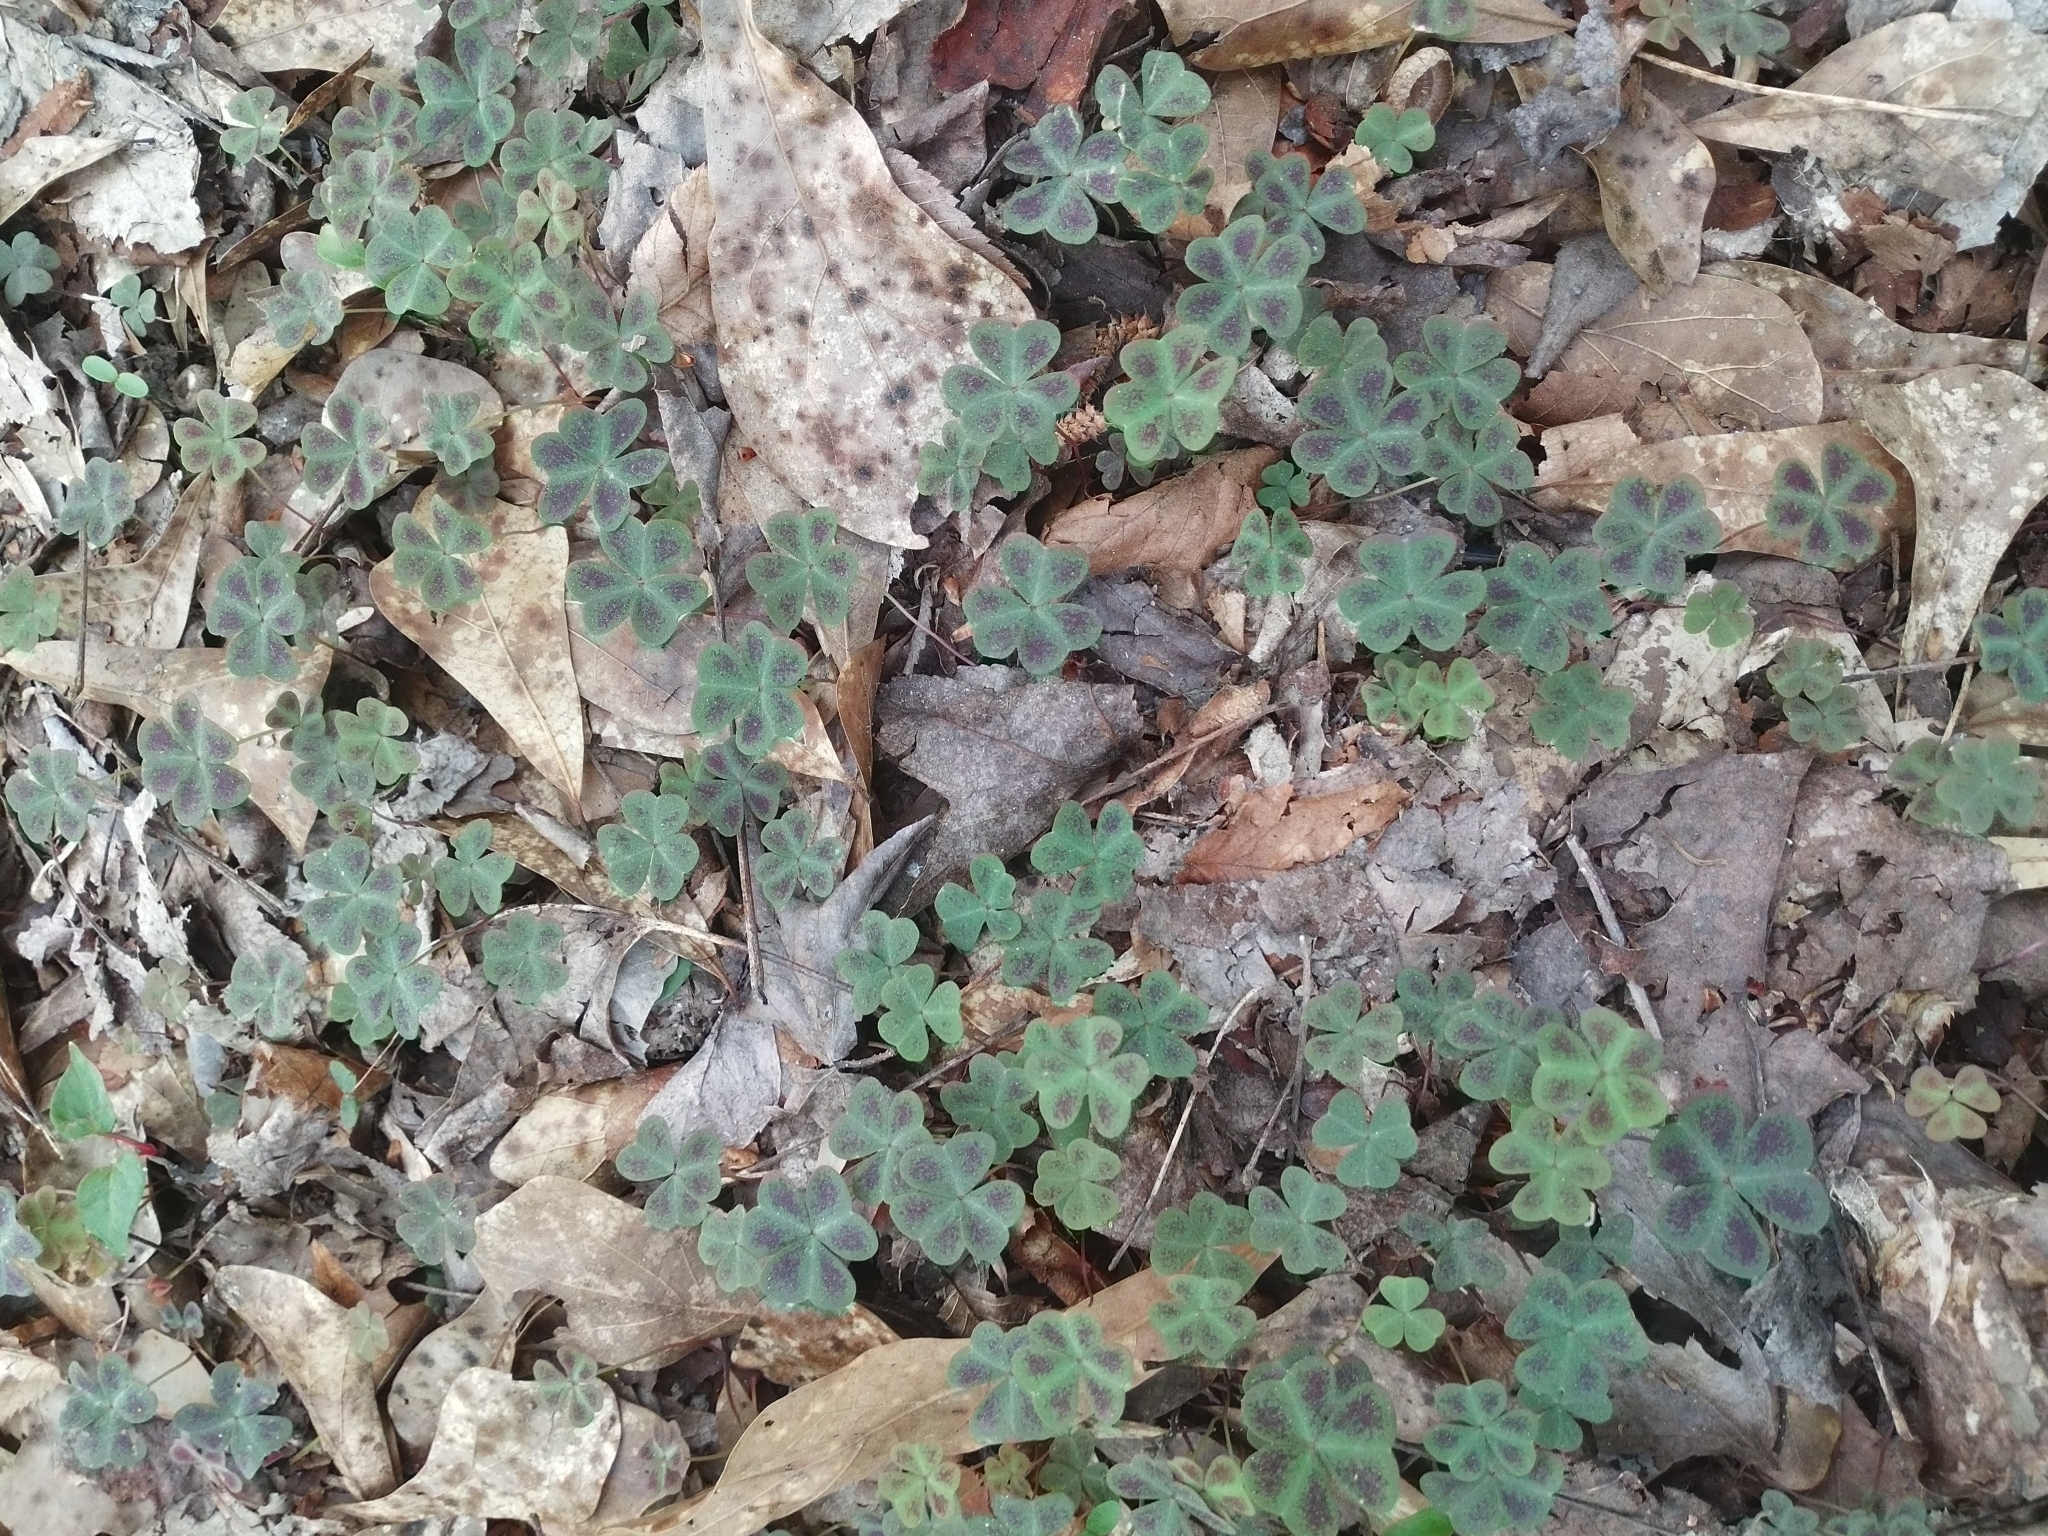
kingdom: Plantae
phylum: Tracheophyta
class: Magnoliopsida
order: Oxalidales
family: Oxalidaceae
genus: Oxalis
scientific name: Oxalis violacea
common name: Violet wood-sorrel
